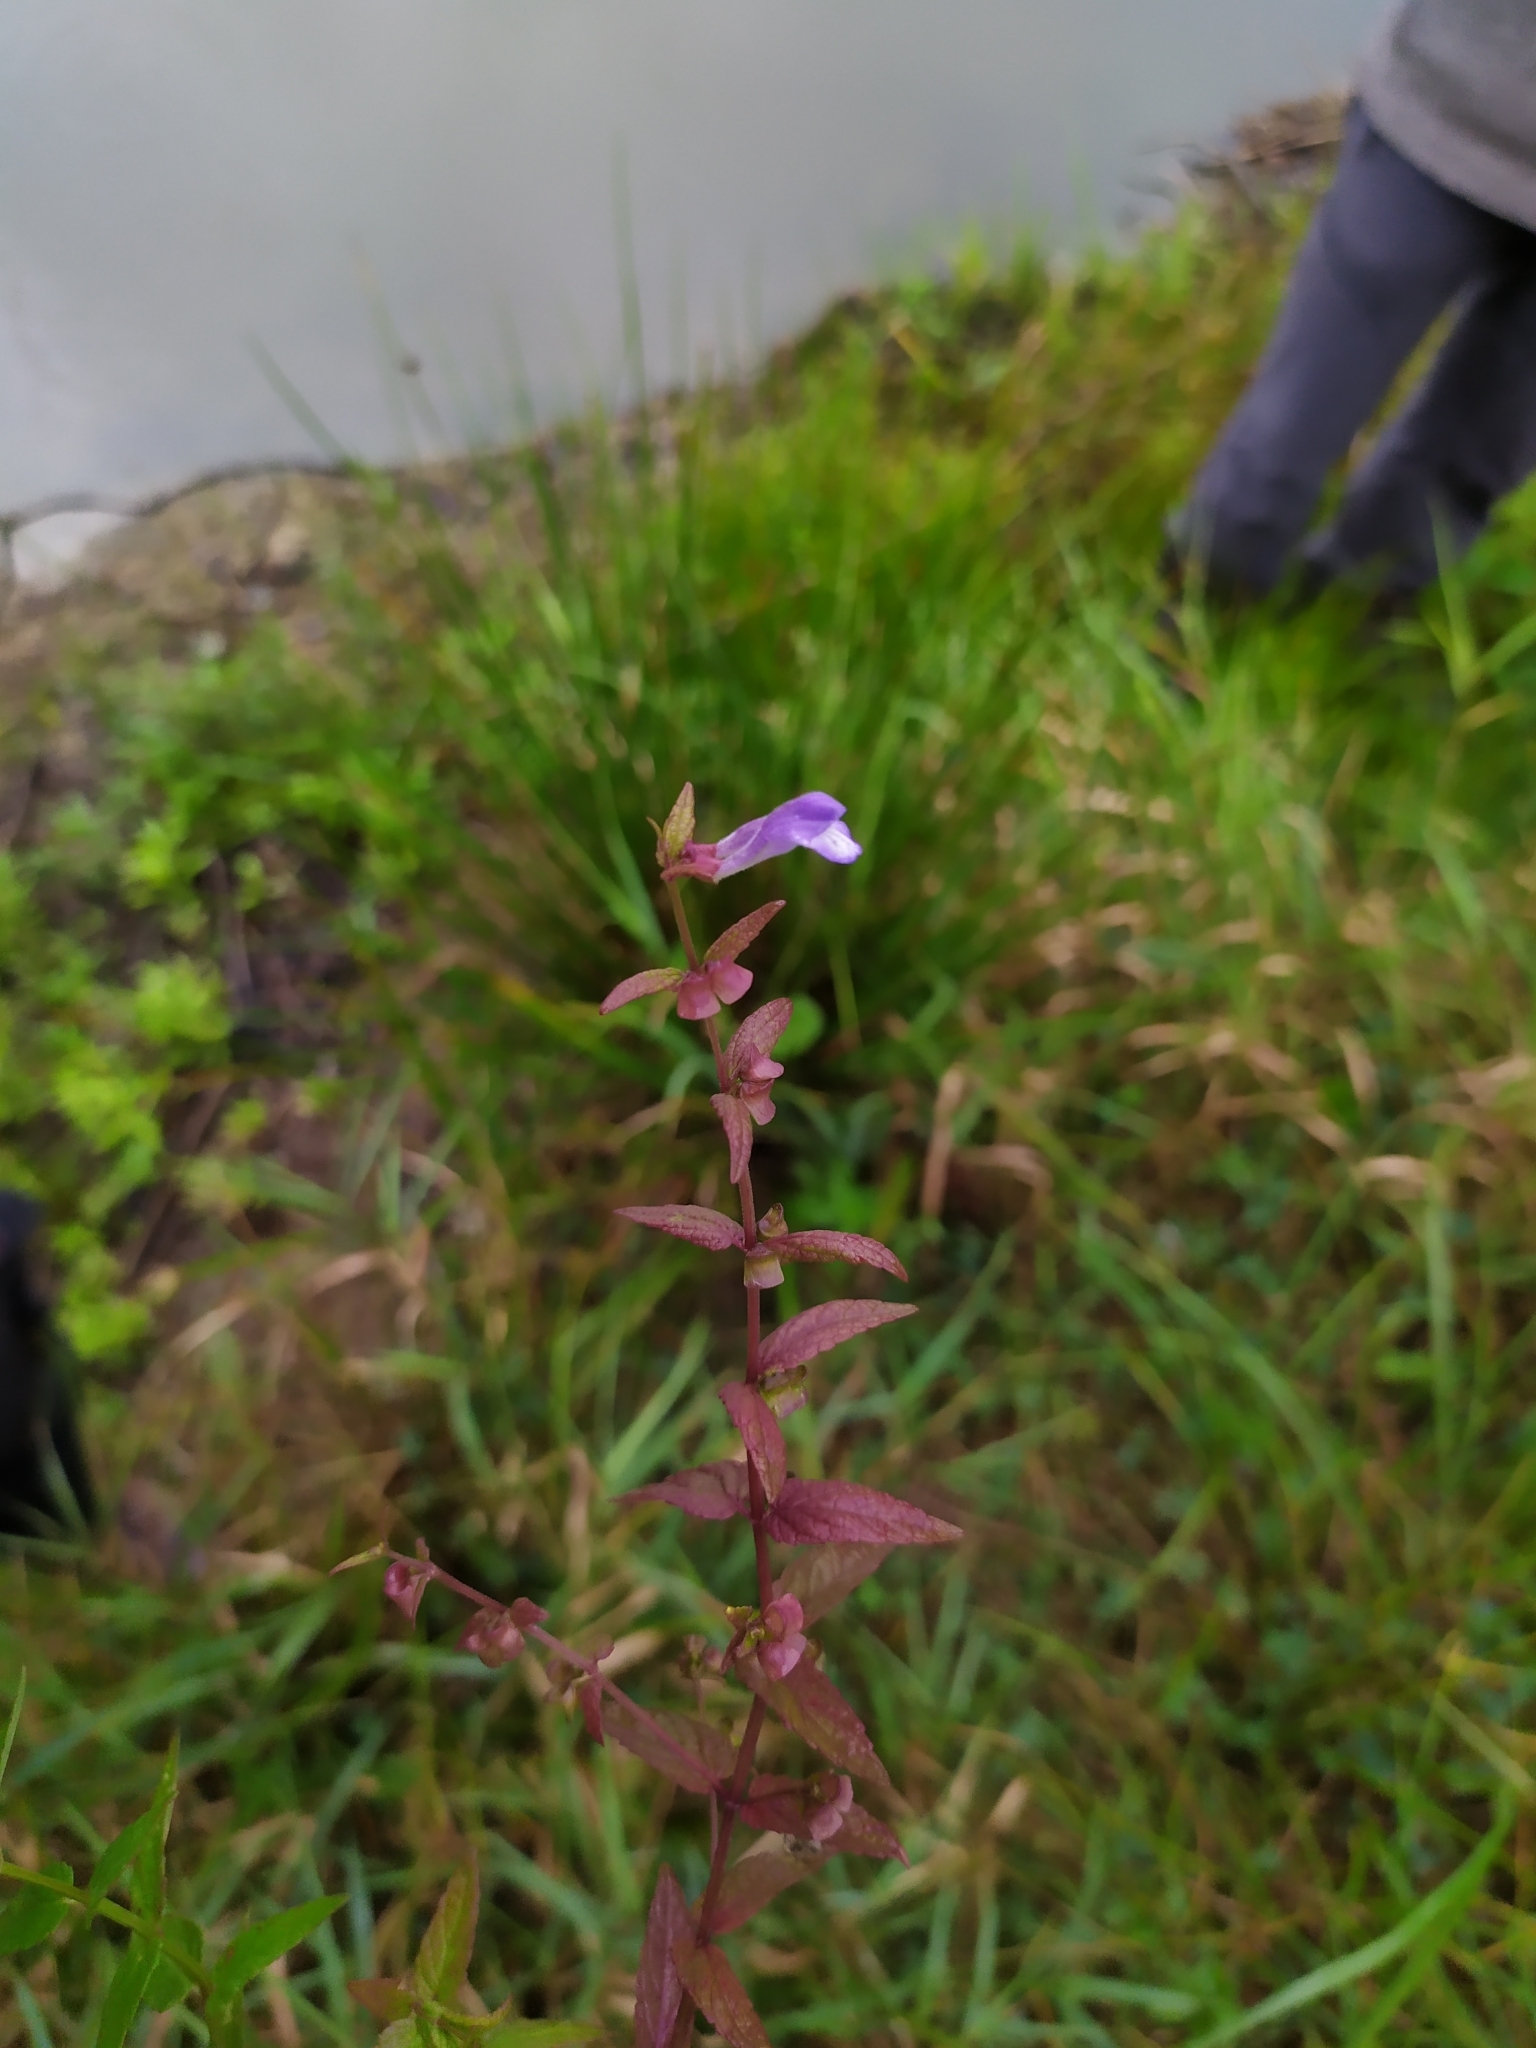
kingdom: Plantae
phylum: Tracheophyta
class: Magnoliopsida
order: Lamiales
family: Lamiaceae
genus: Scutellaria
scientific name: Scutellaria galericulata
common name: Skullcap
